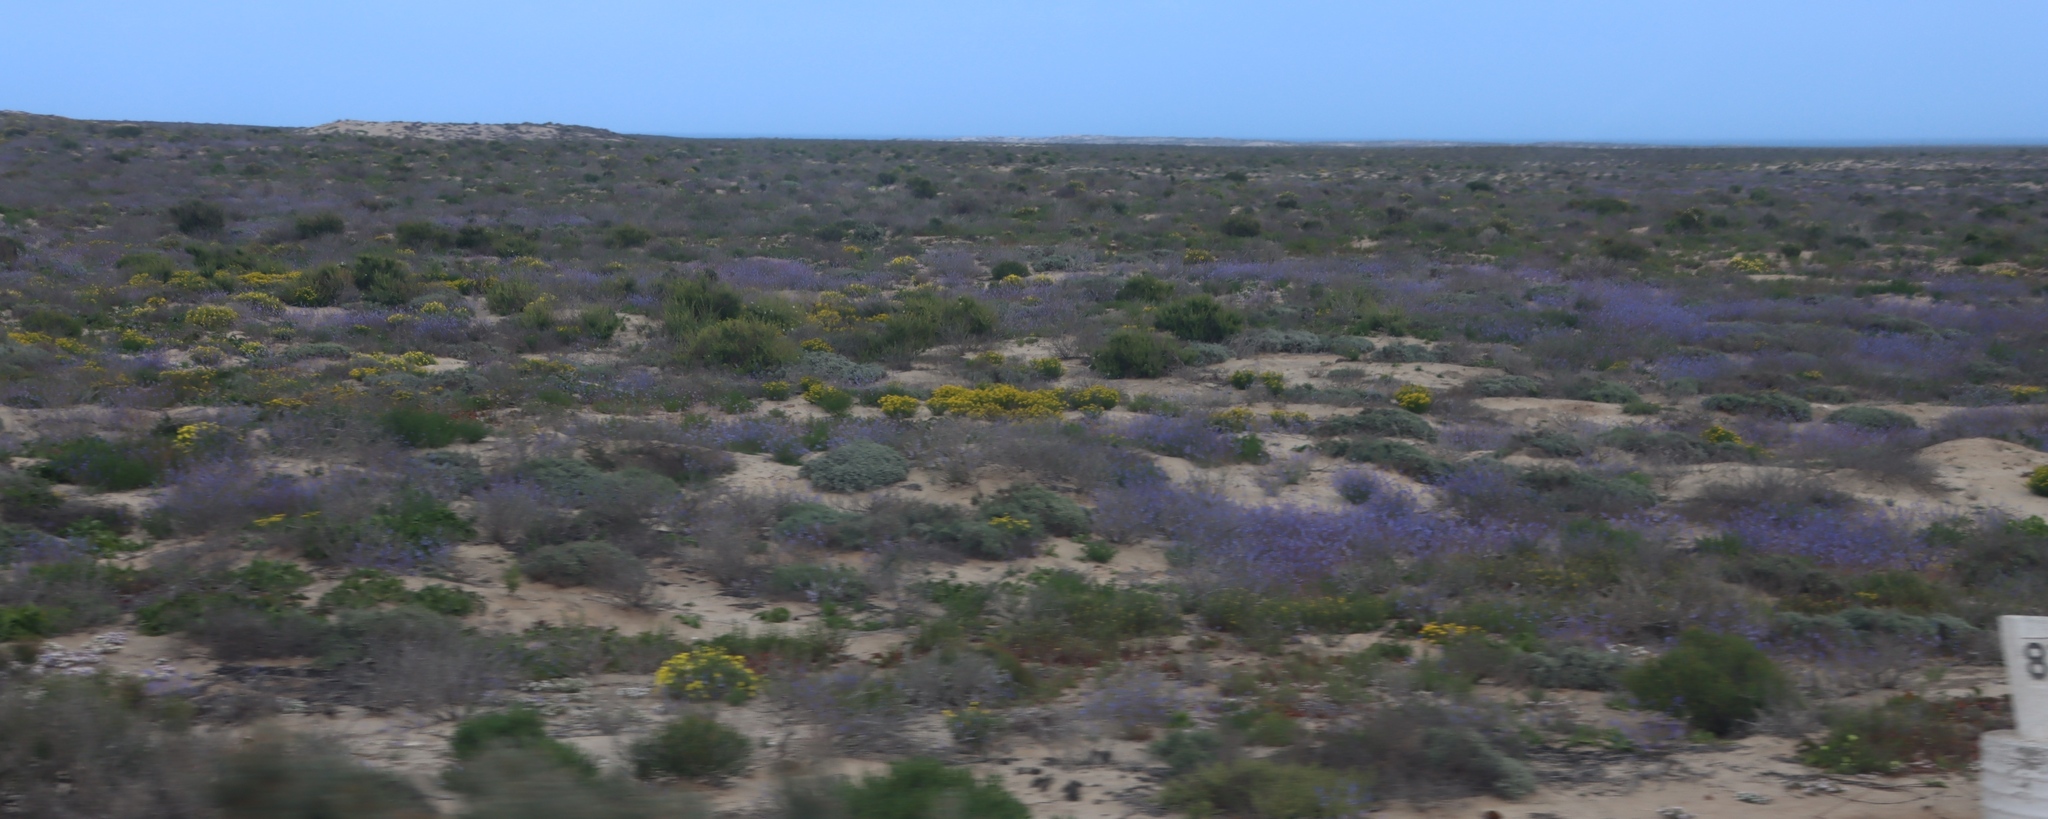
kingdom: Plantae
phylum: Tracheophyta
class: Magnoliopsida
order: Brassicales
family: Brassicaceae
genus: Heliophila
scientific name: Heliophila lactea
